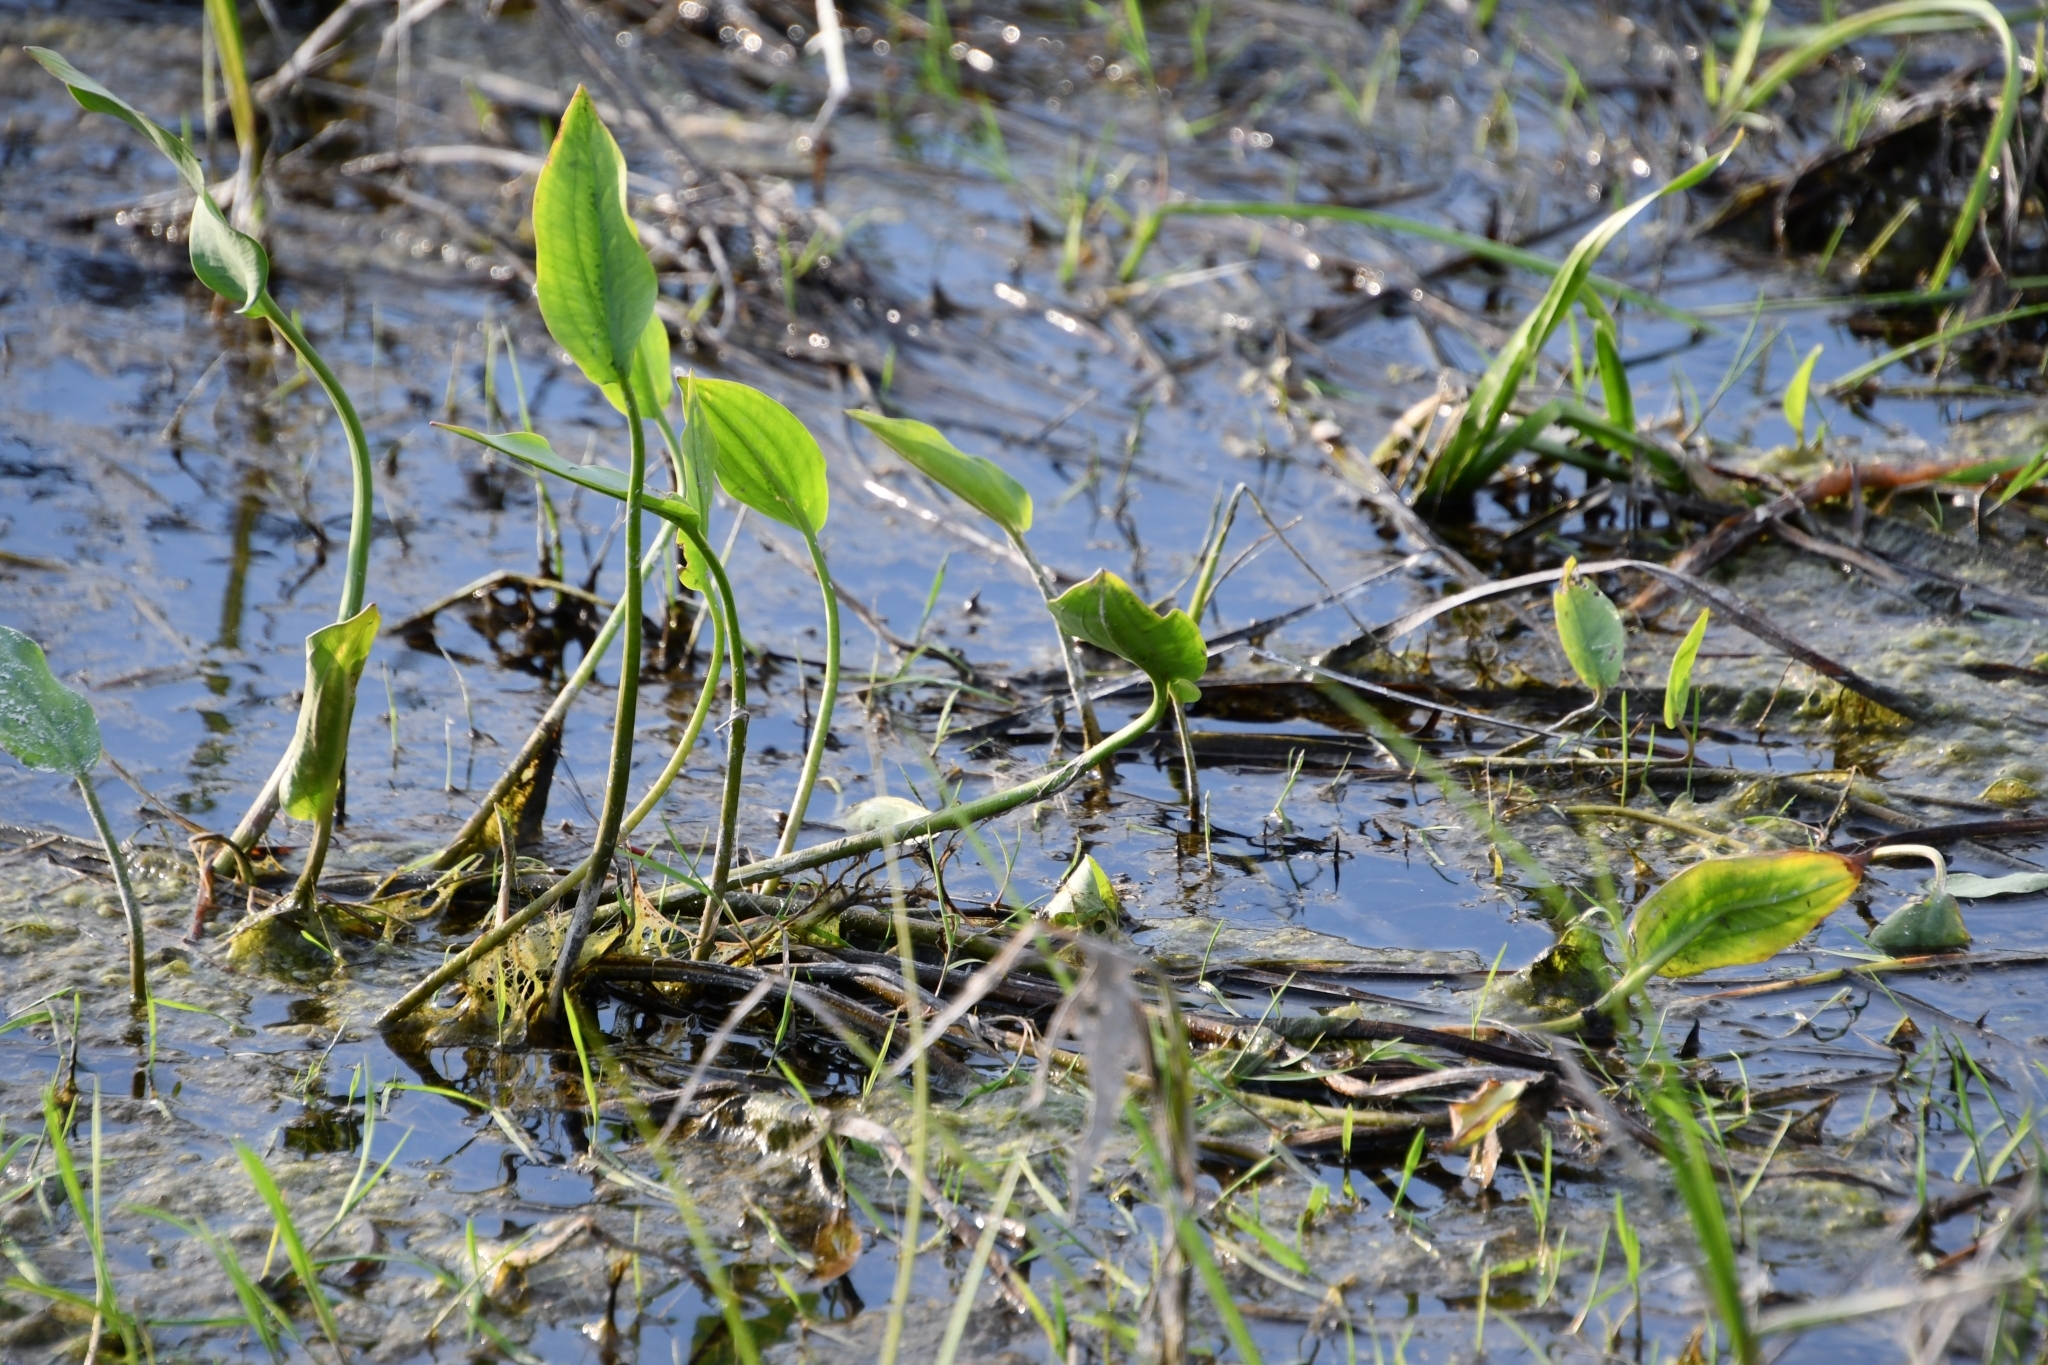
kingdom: Plantae
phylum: Tracheophyta
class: Liliopsida
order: Alismatales
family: Alismataceae
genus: Alisma
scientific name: Alisma plantago-aquatica
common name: Water-plantain
